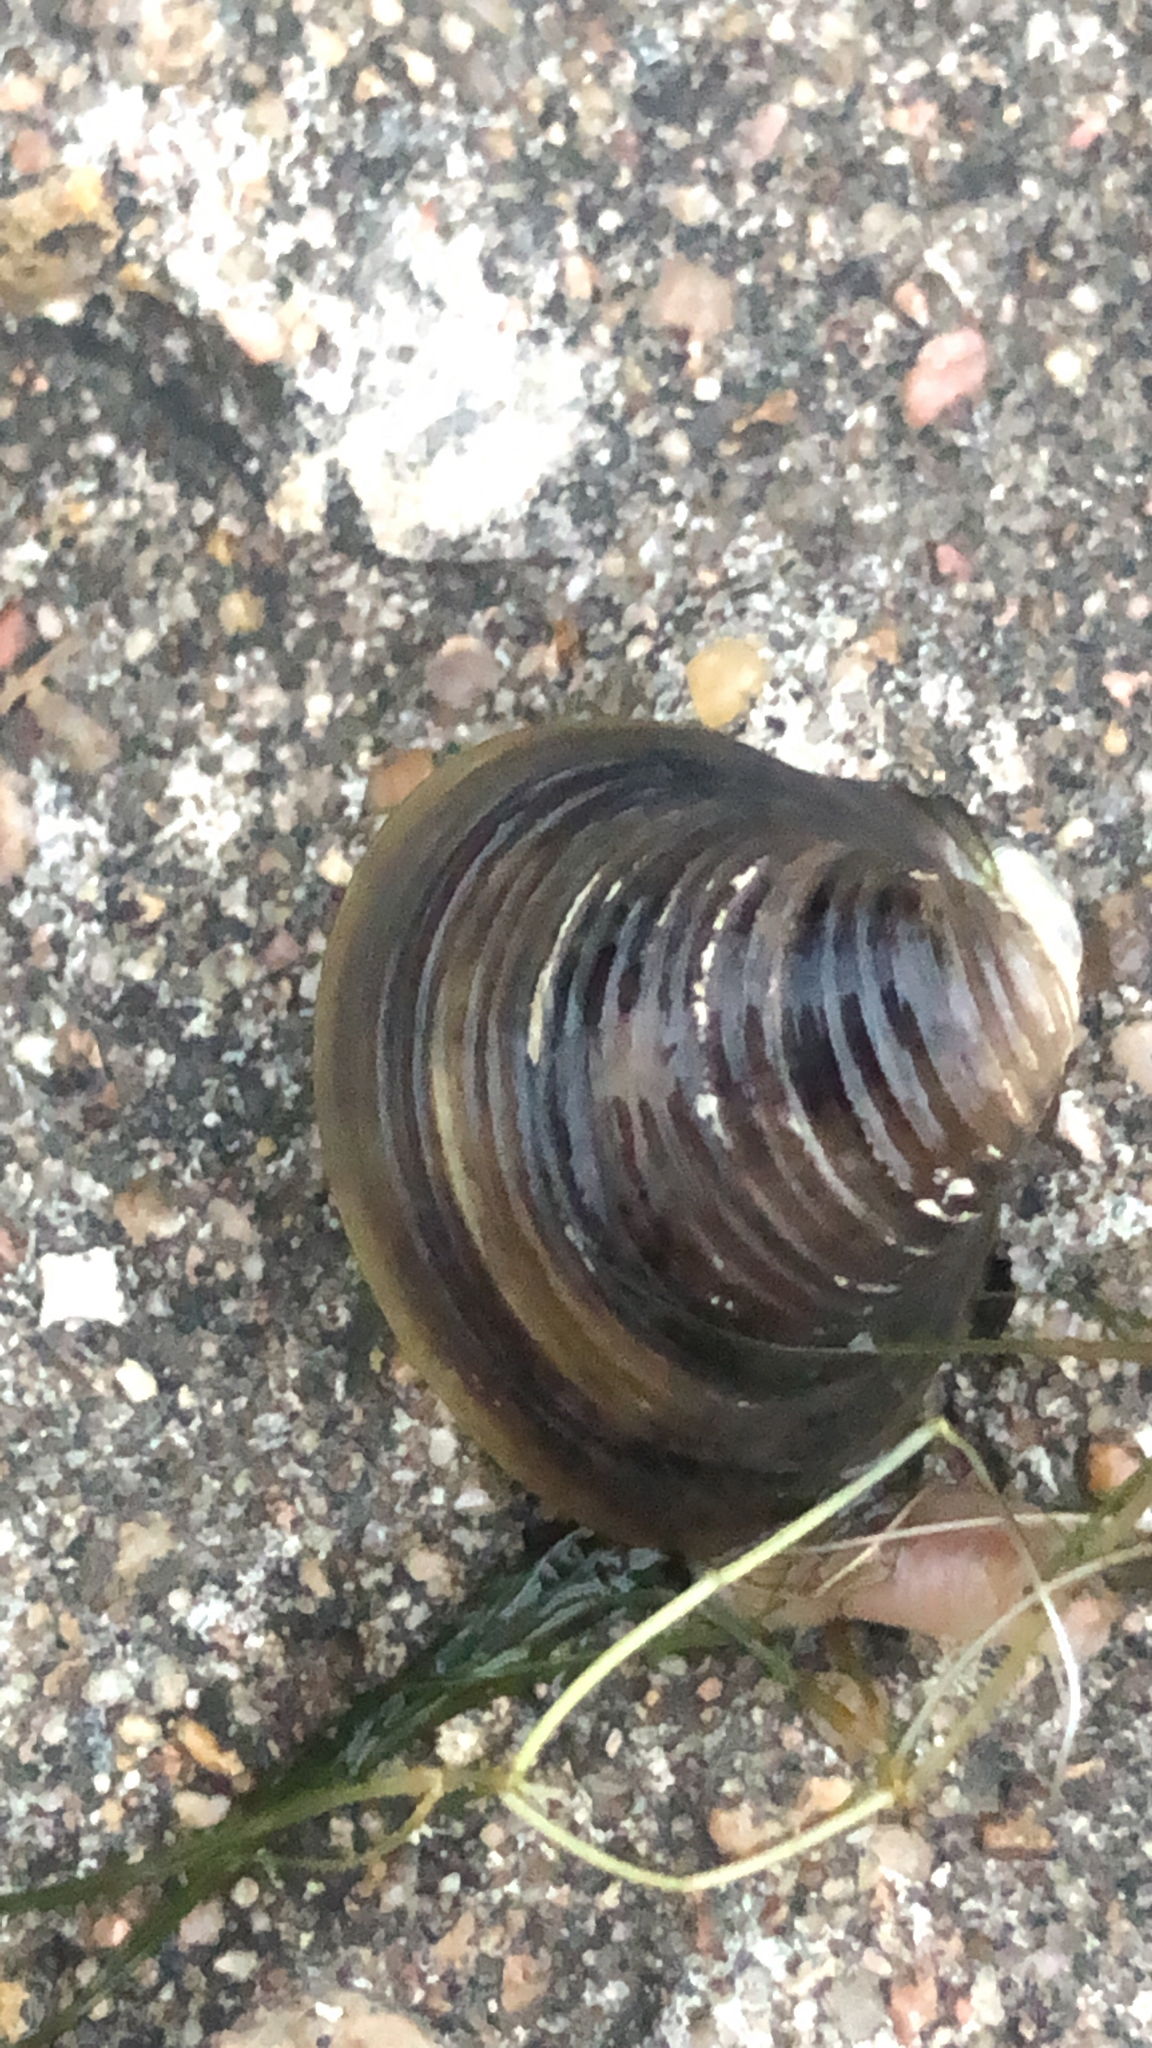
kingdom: Animalia
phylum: Mollusca
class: Bivalvia
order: Venerida
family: Cyrenidae
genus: Corbicula
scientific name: Corbicula fluminea
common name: Asian clam
